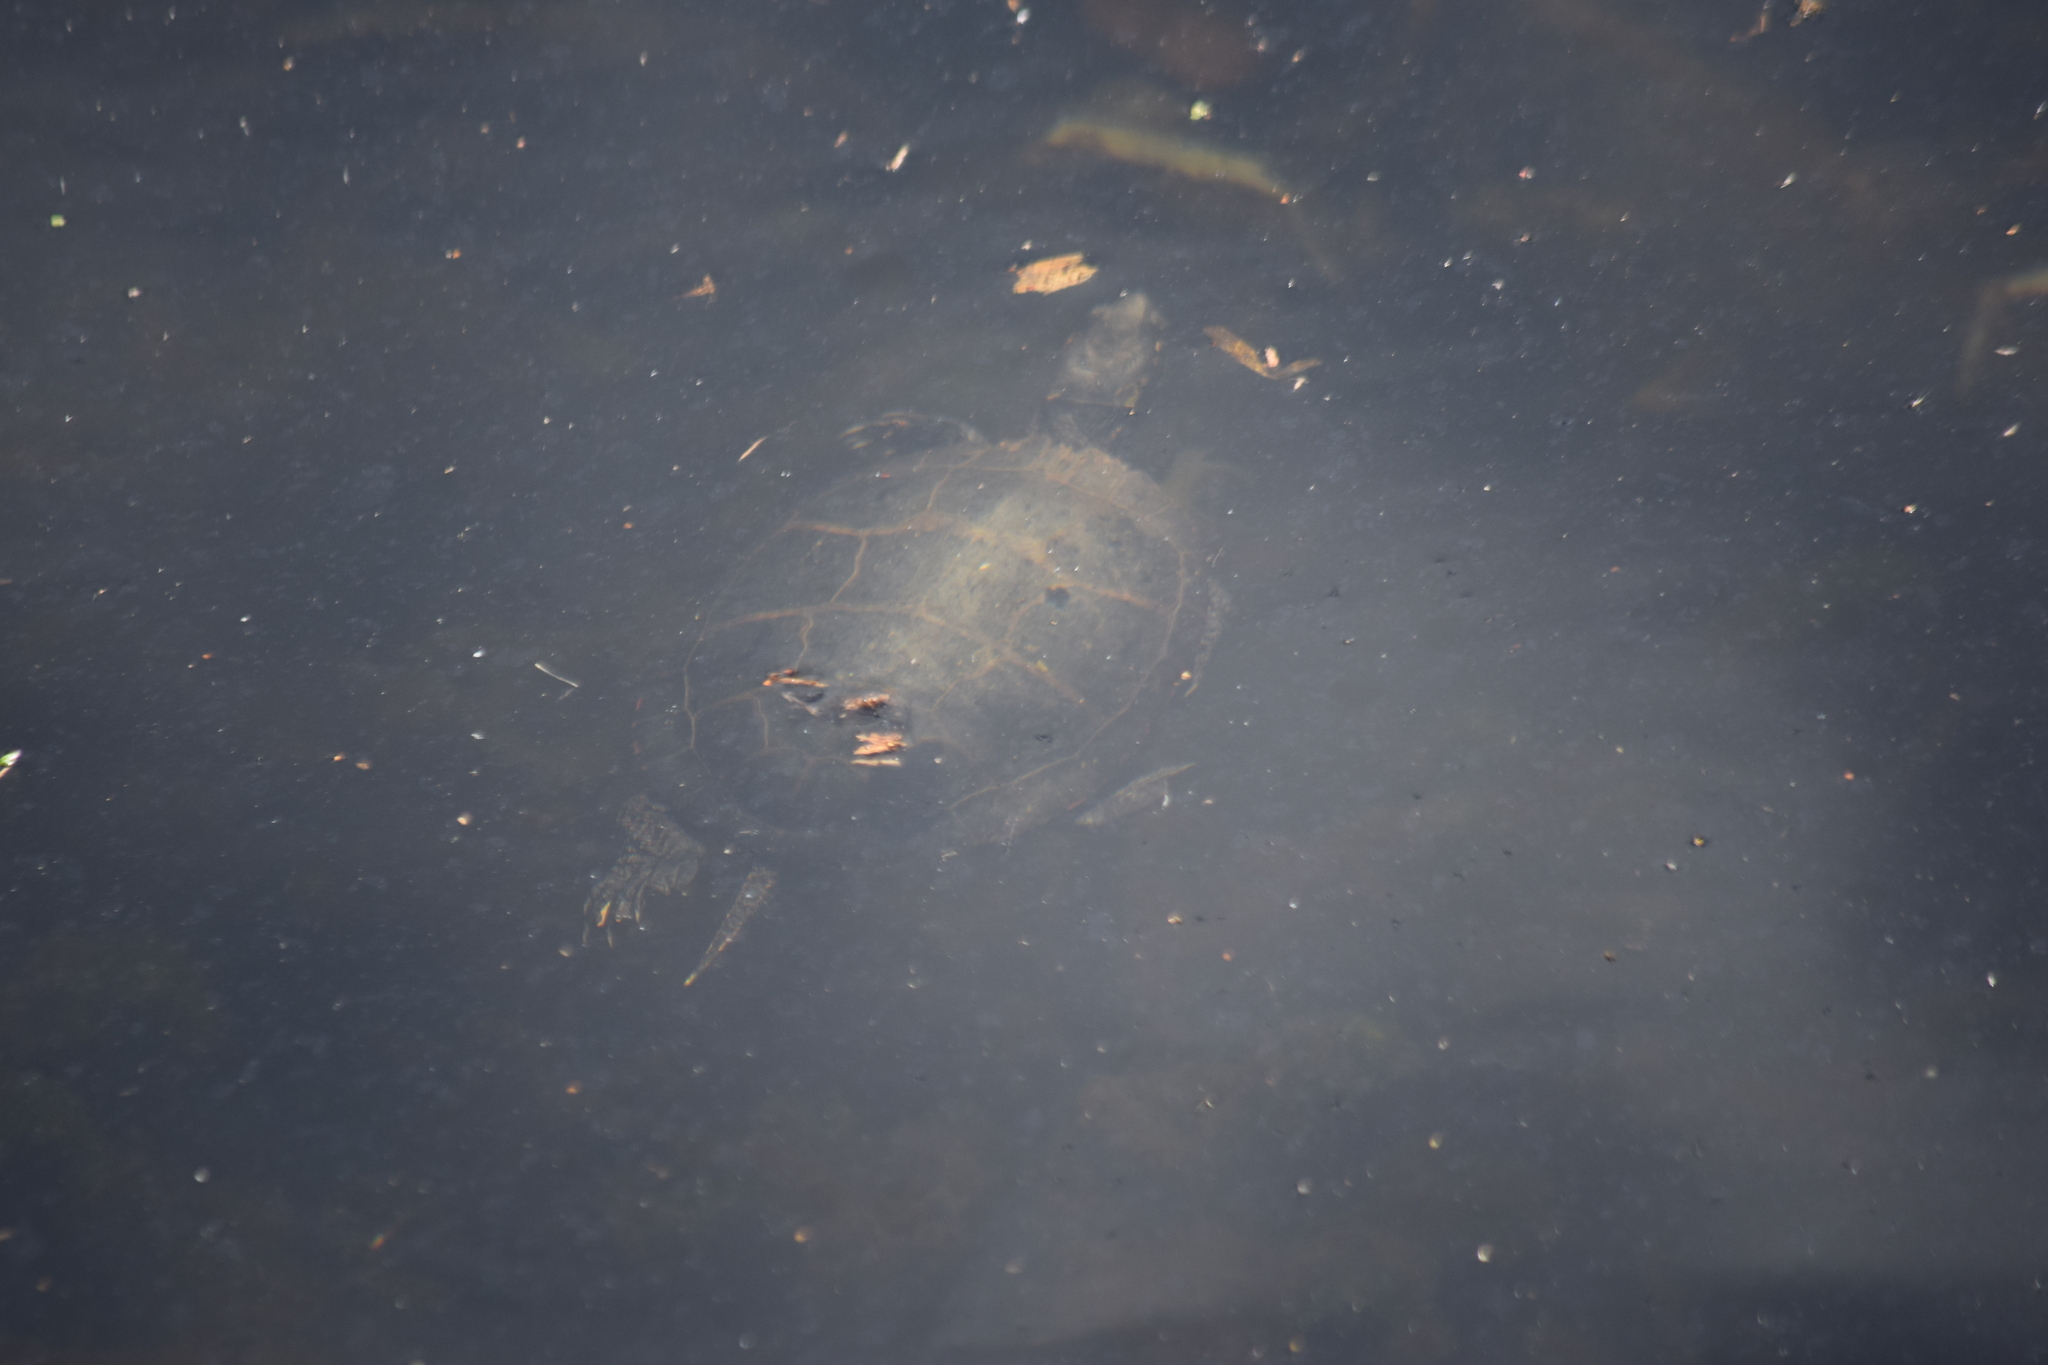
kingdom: Animalia
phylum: Chordata
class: Testudines
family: Emydidae
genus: Chrysemys
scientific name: Chrysemys picta
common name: Painted turtle
